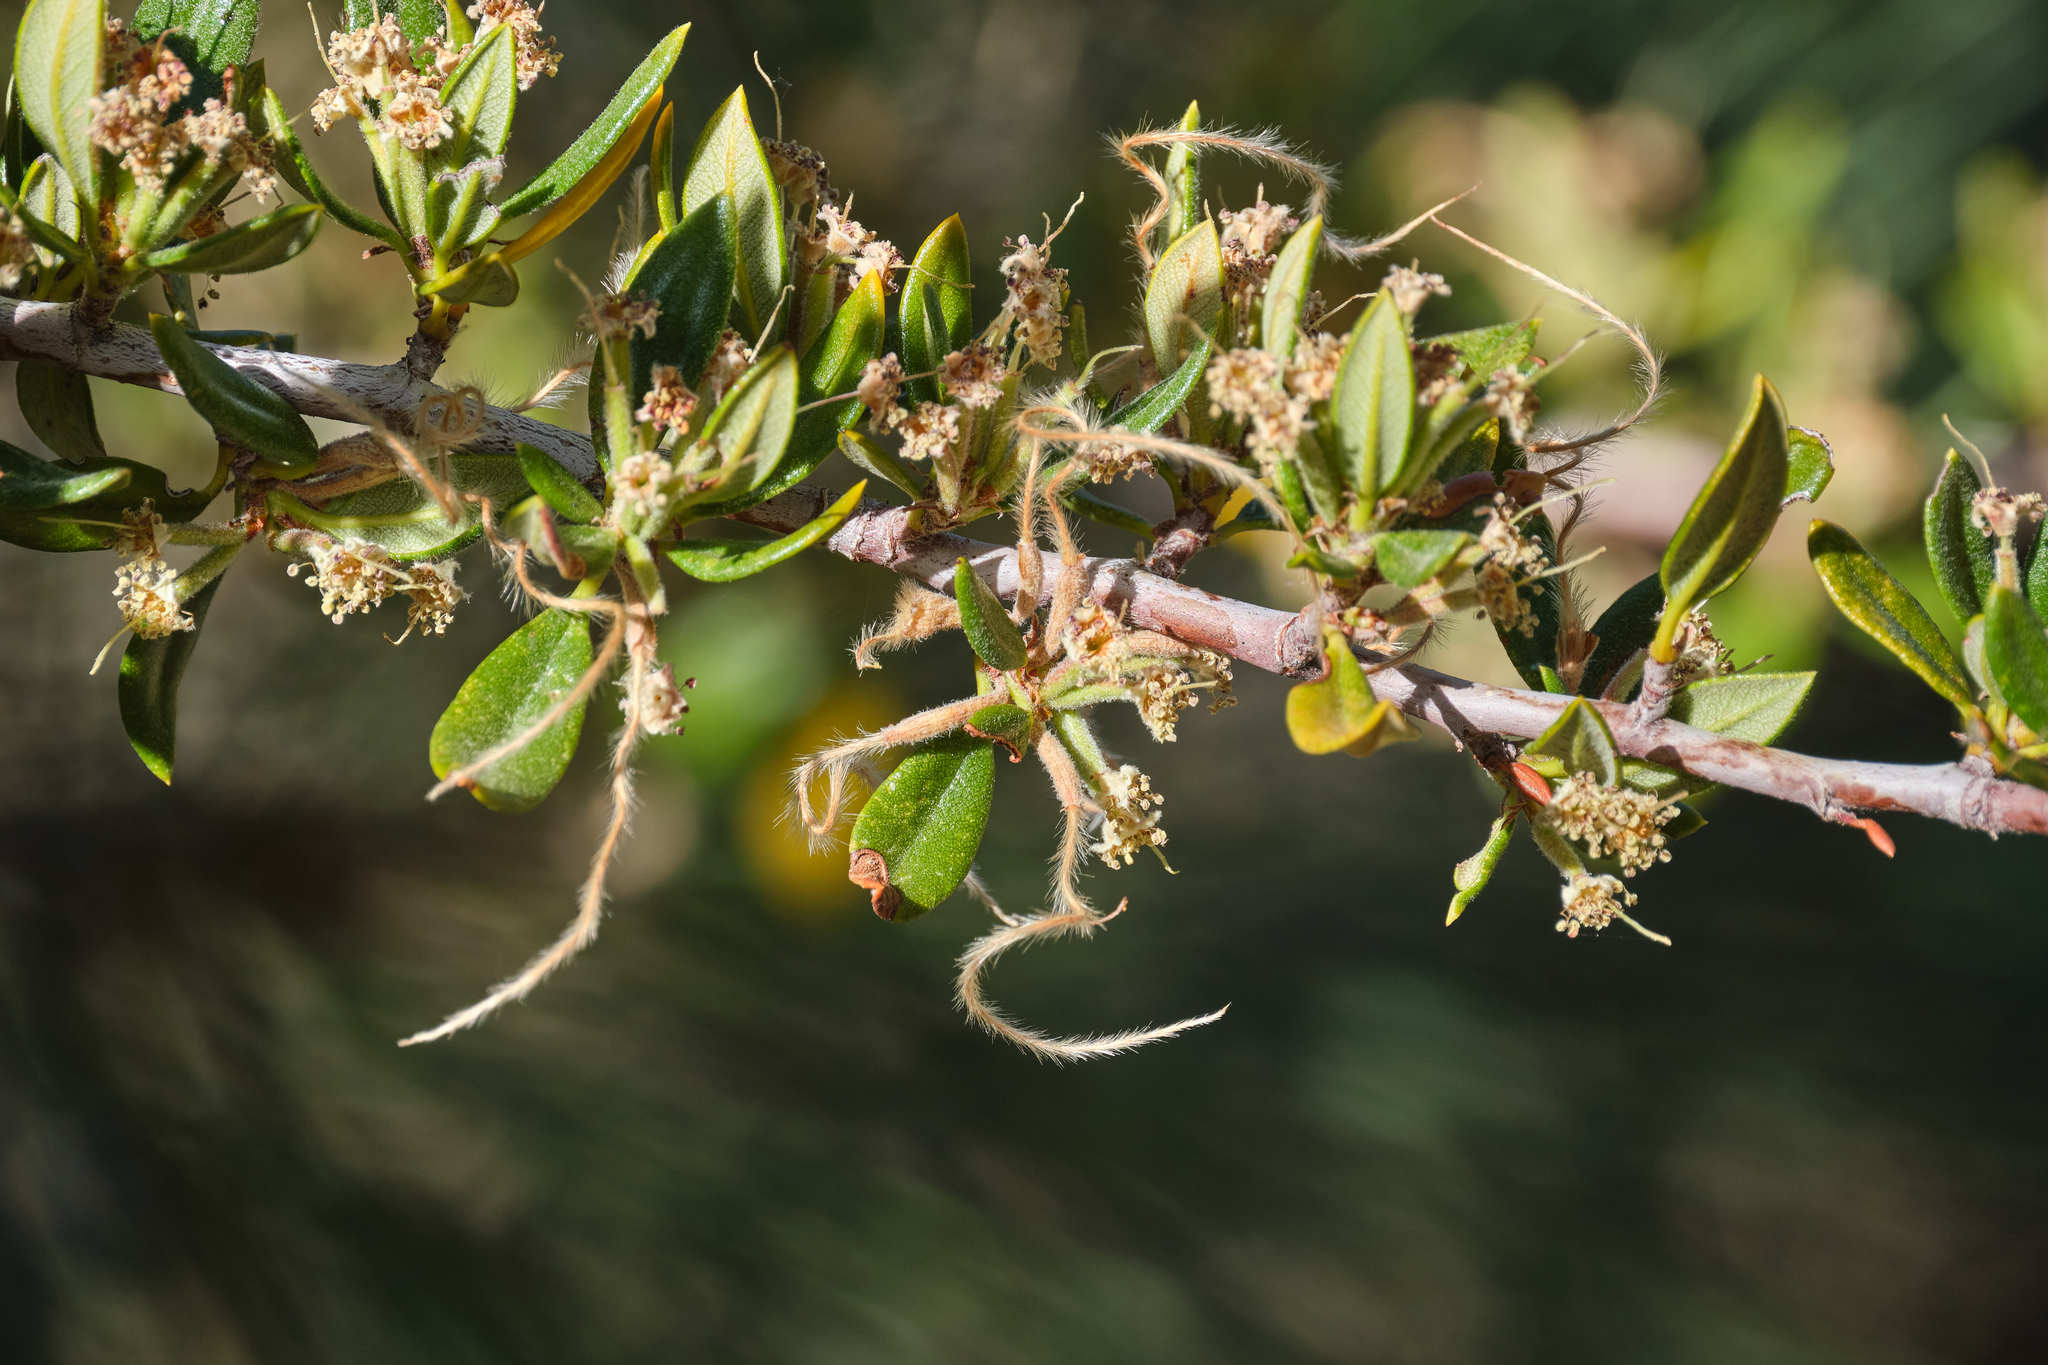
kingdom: Plantae
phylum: Tracheophyta
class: Magnoliopsida
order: Rosales
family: Rosaceae
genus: Cercocarpus
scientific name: Cercocarpus ledifolius
